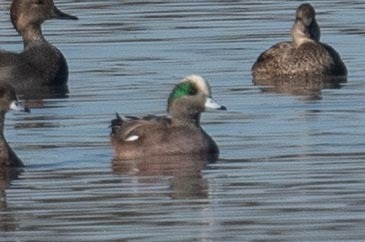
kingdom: Animalia
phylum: Chordata
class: Aves
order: Anseriformes
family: Anatidae
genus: Mareca
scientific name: Mareca americana
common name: American wigeon
